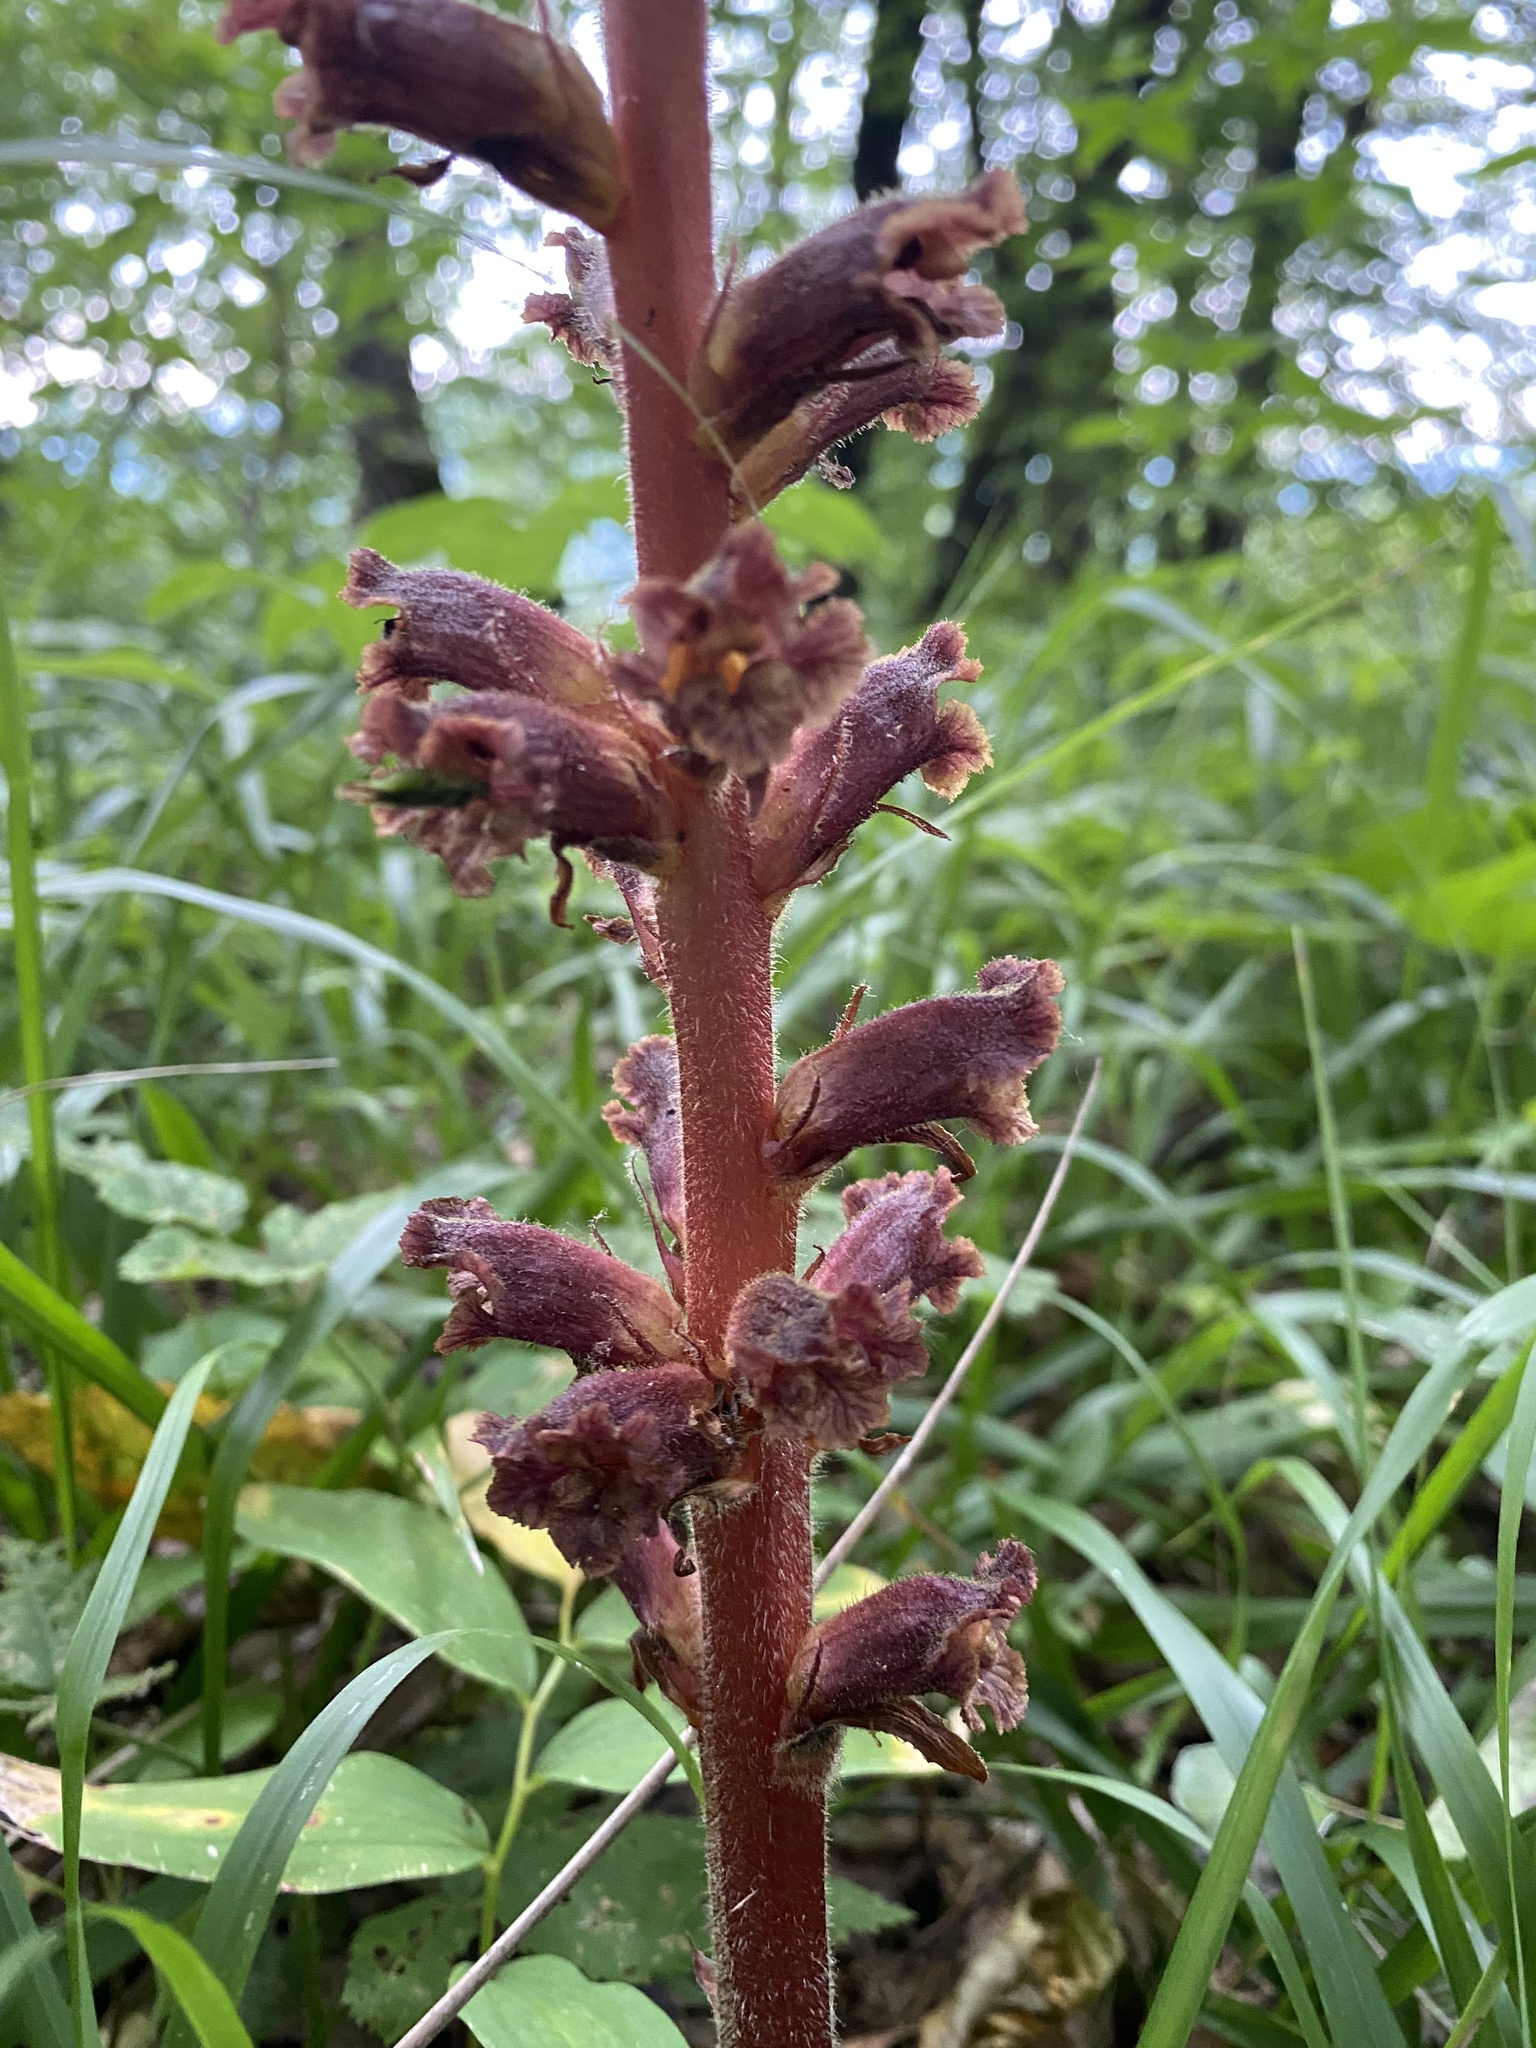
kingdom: Plantae
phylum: Tracheophyta
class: Magnoliopsida
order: Lamiales
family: Orobanchaceae
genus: Orobanche
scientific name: Orobanche laxissima
